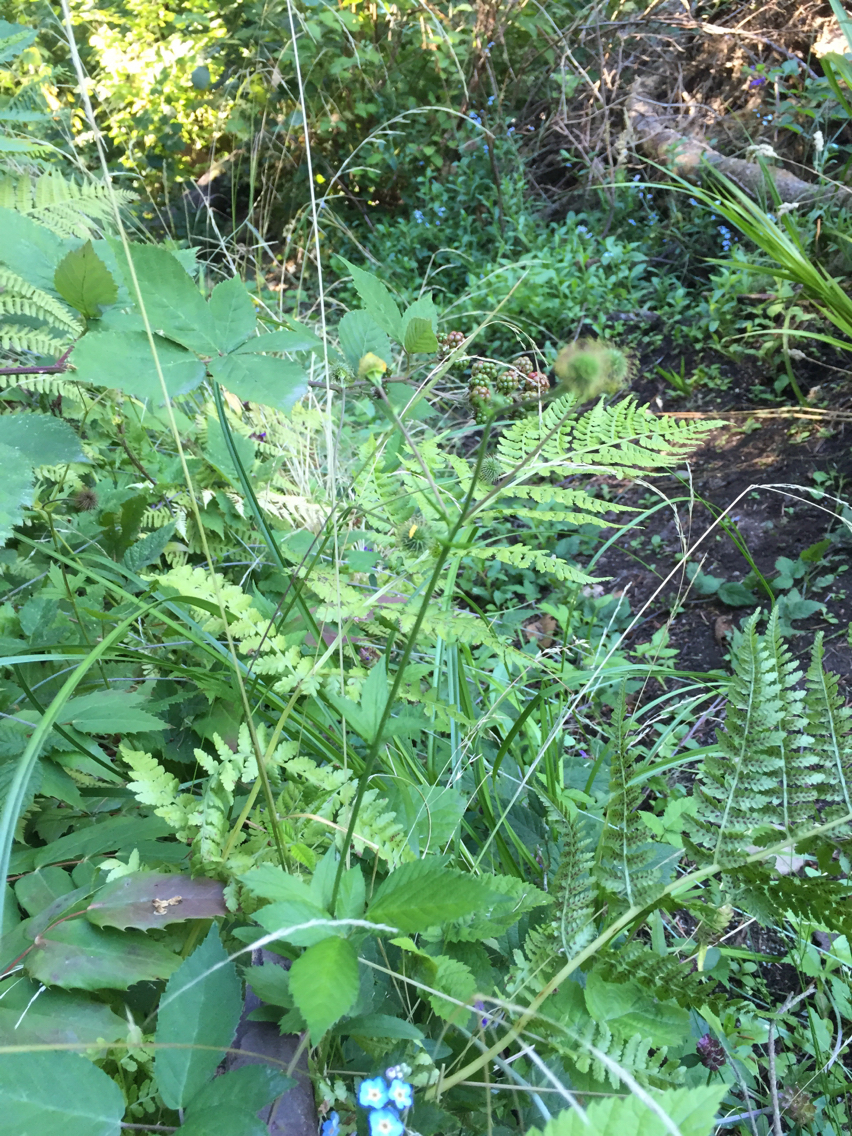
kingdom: Plantae
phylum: Tracheophyta
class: Magnoliopsida
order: Rosales
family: Rosaceae
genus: Geum
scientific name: Geum macrophyllum
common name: Large-leaved avens
